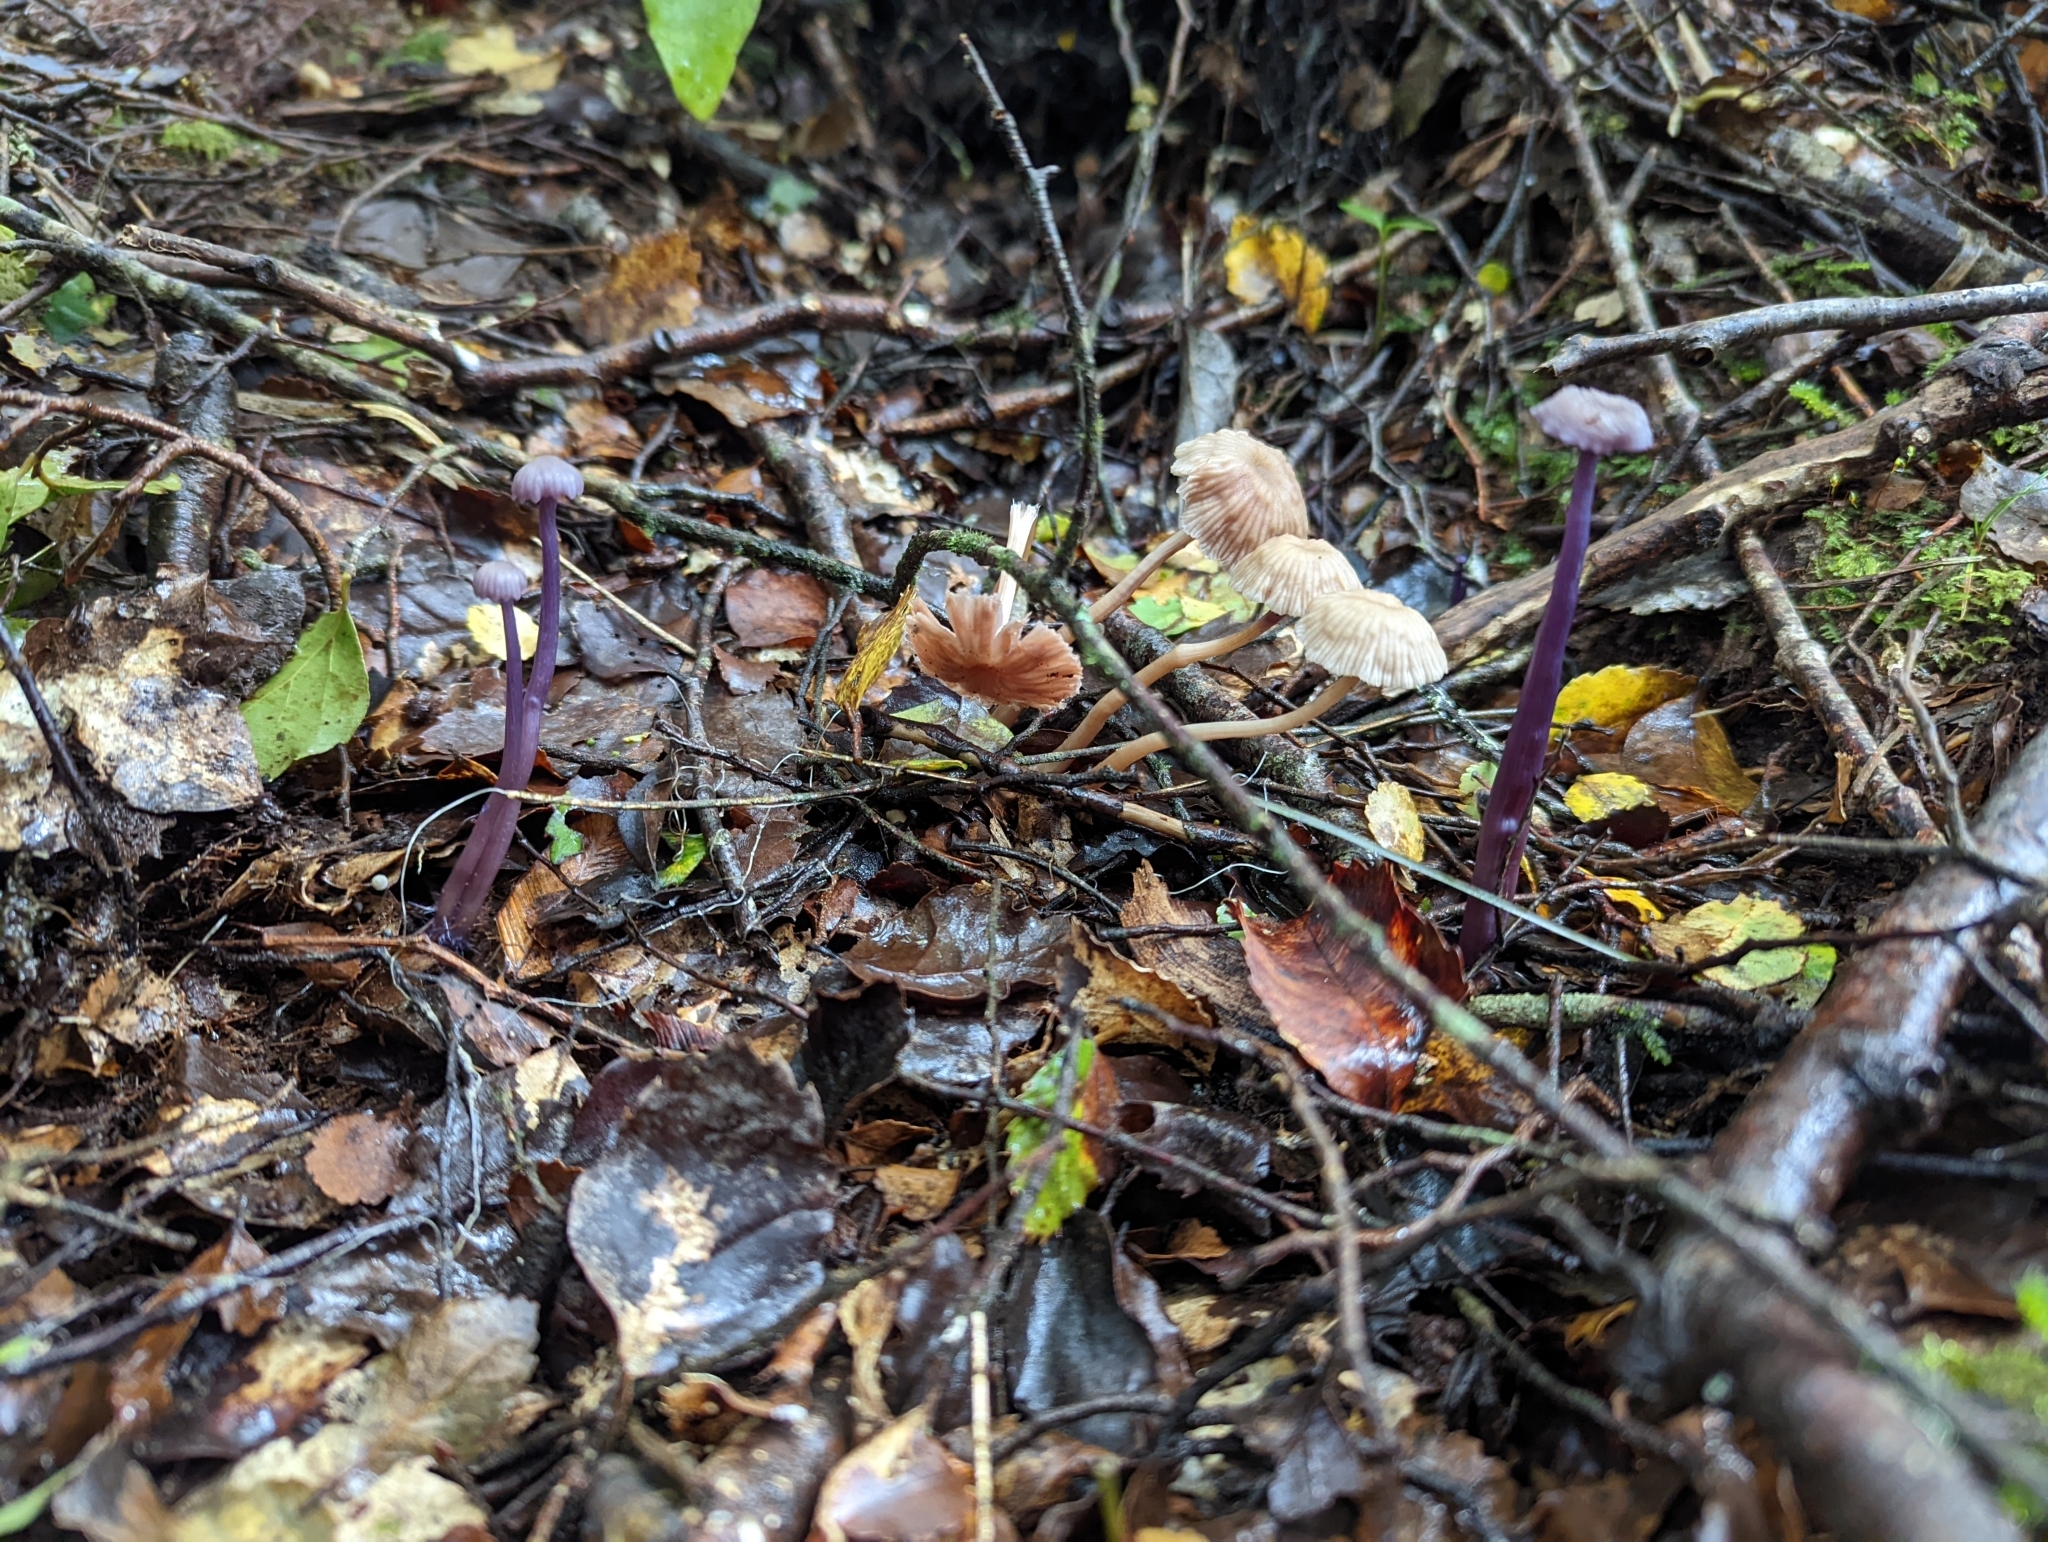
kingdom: Fungi
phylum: Basidiomycota
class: Agaricomycetes
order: Agaricales
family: Hydnangiaceae
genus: Laccaria
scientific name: Laccaria masoniae
